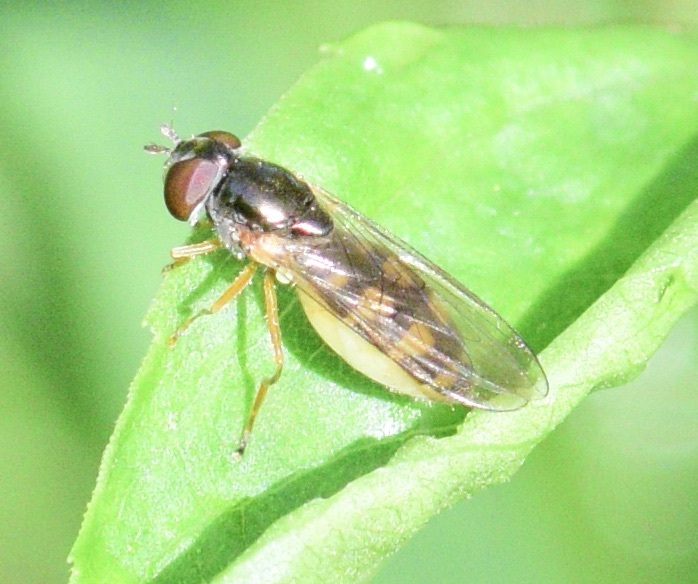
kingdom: Animalia
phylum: Arthropoda
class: Insecta
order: Diptera
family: Syrphidae
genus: Melanostoma
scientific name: Melanostoma mellina
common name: Hover fly
